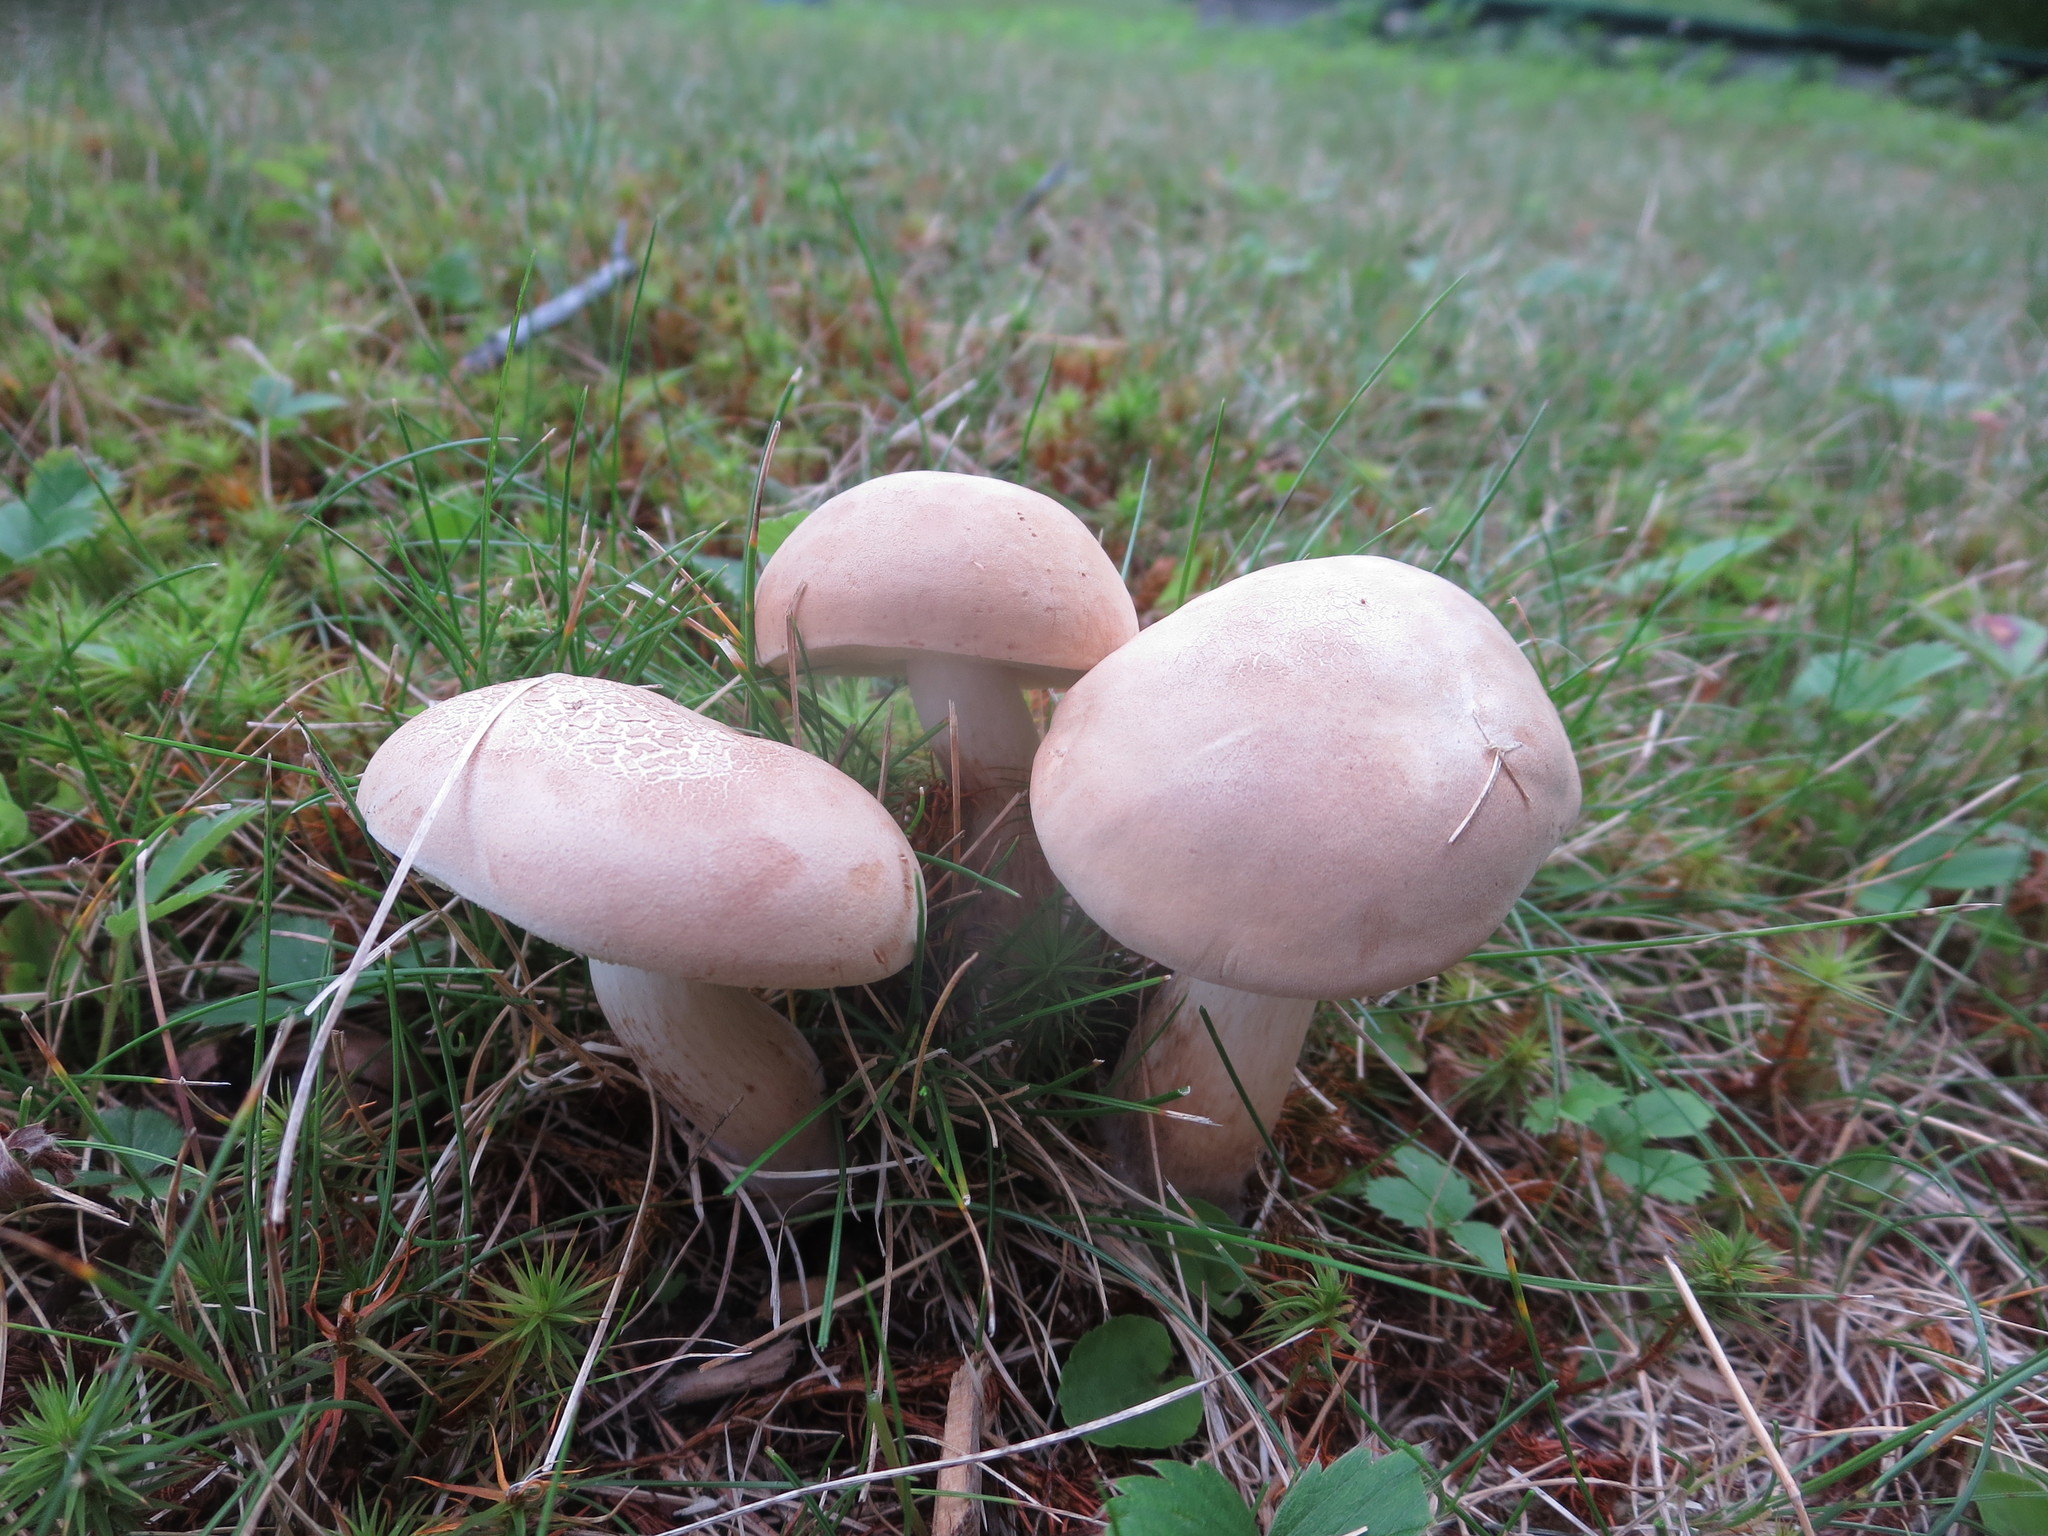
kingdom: Fungi
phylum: Basidiomycota
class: Agaricomycetes
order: Boletales
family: Boletaceae
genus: Imleria
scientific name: Imleria pallida
